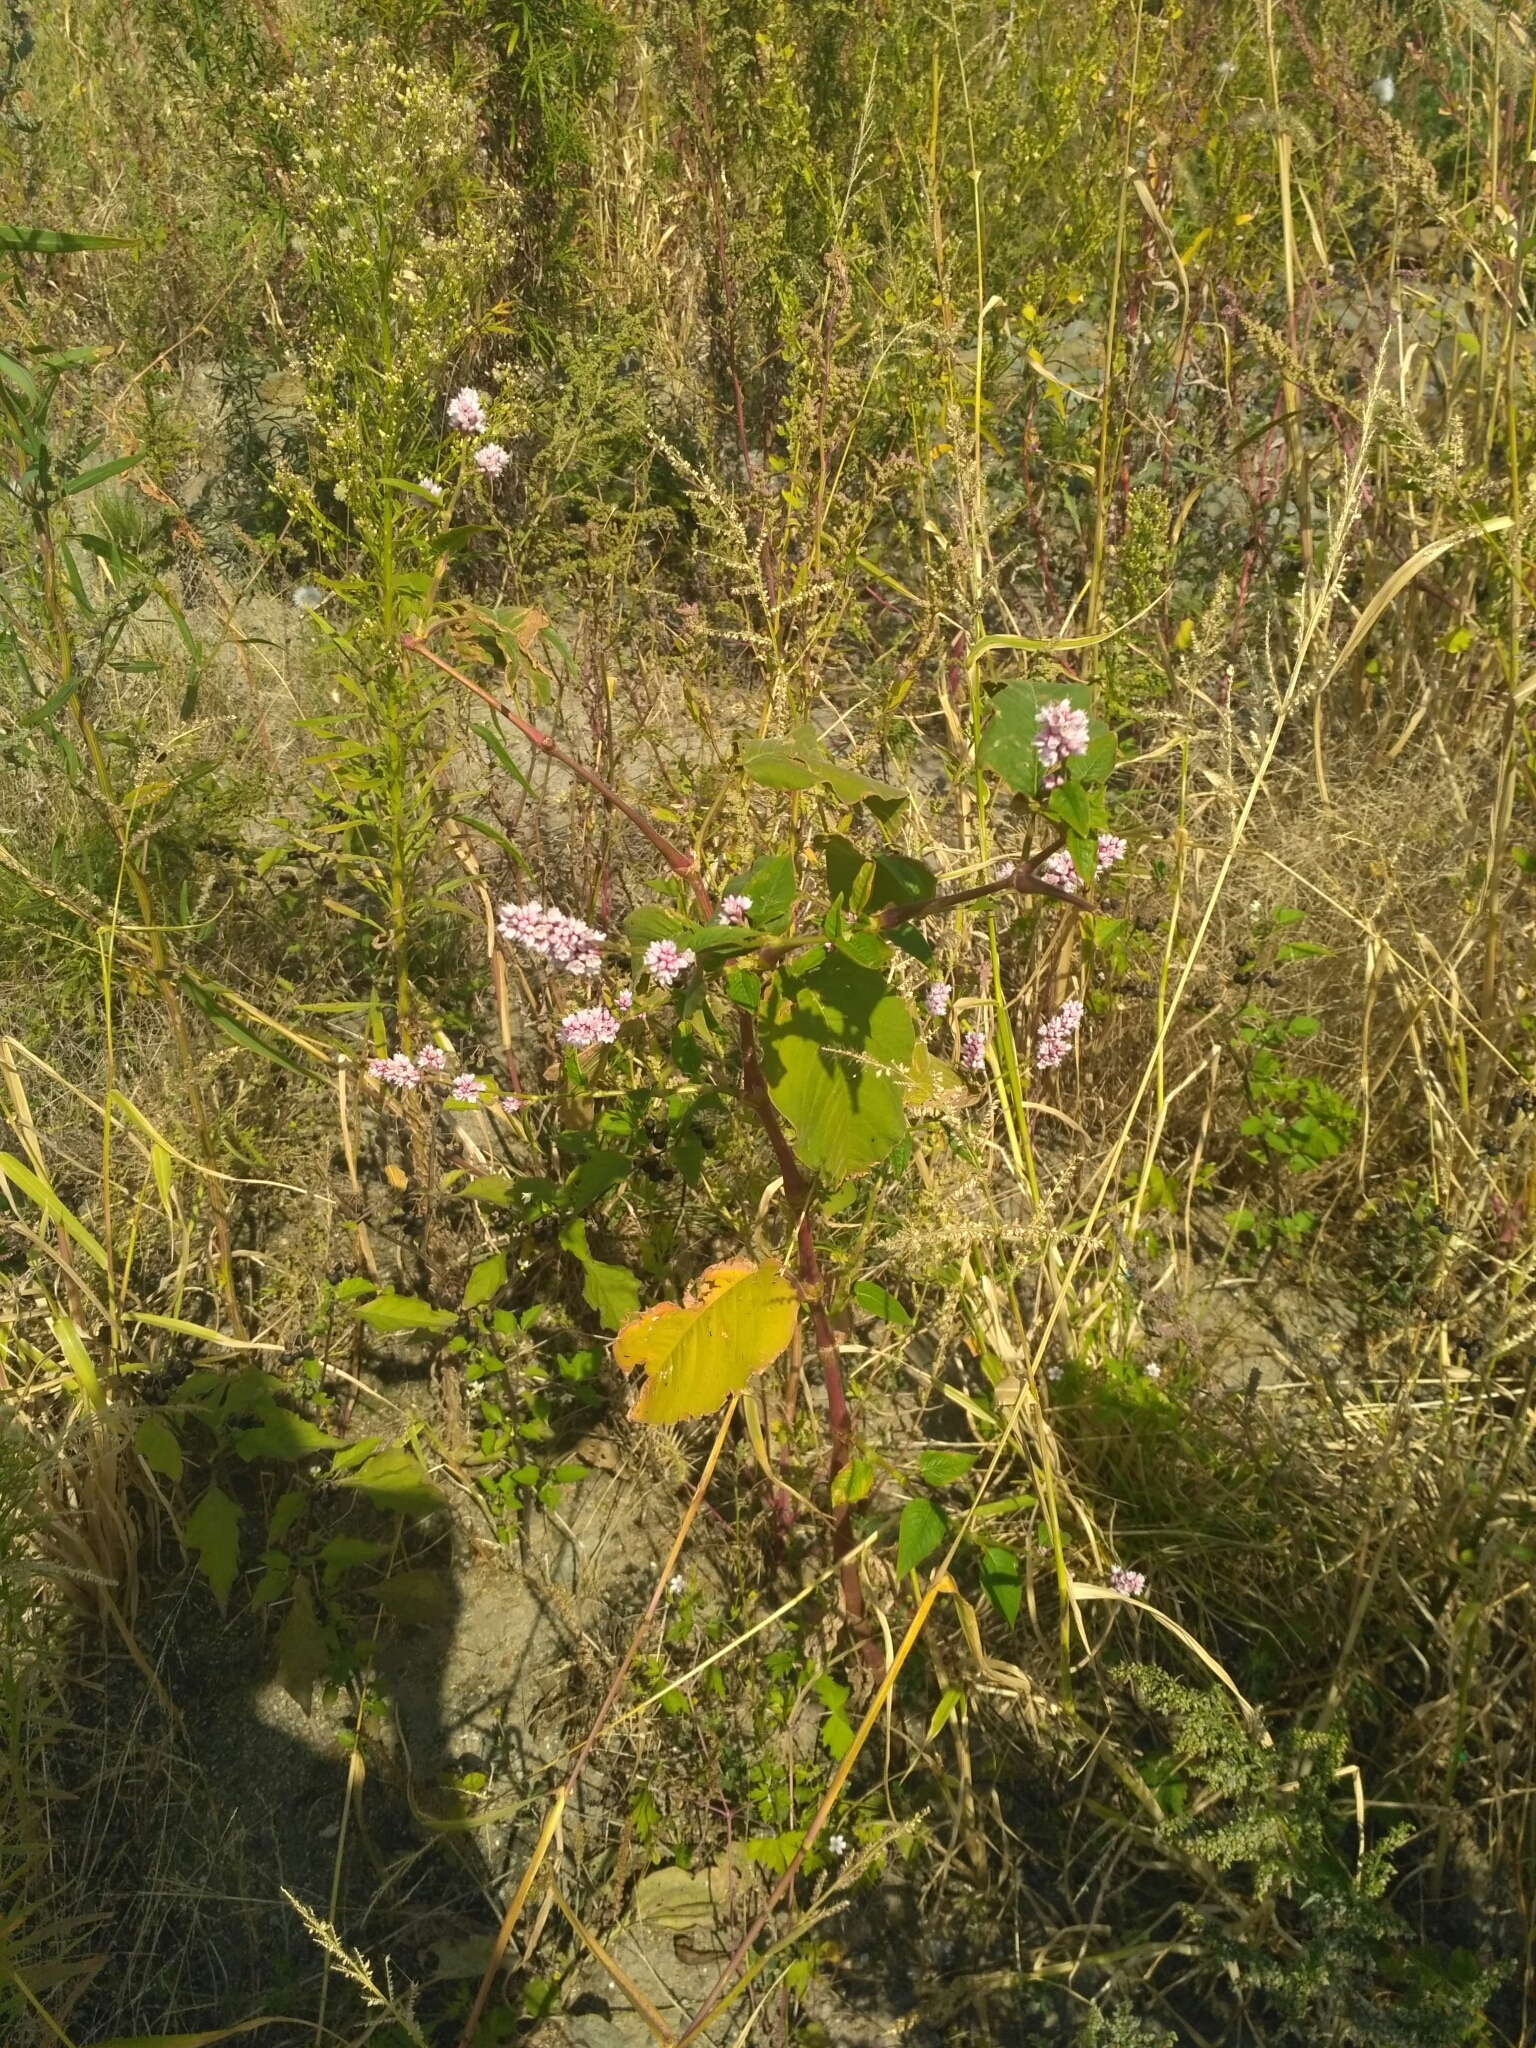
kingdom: Plantae
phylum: Tracheophyta
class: Magnoliopsida
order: Caryophyllales
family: Polygonaceae
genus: Persicaria
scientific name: Persicaria orientalis
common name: Kiss-me-over-the-garden-gate
